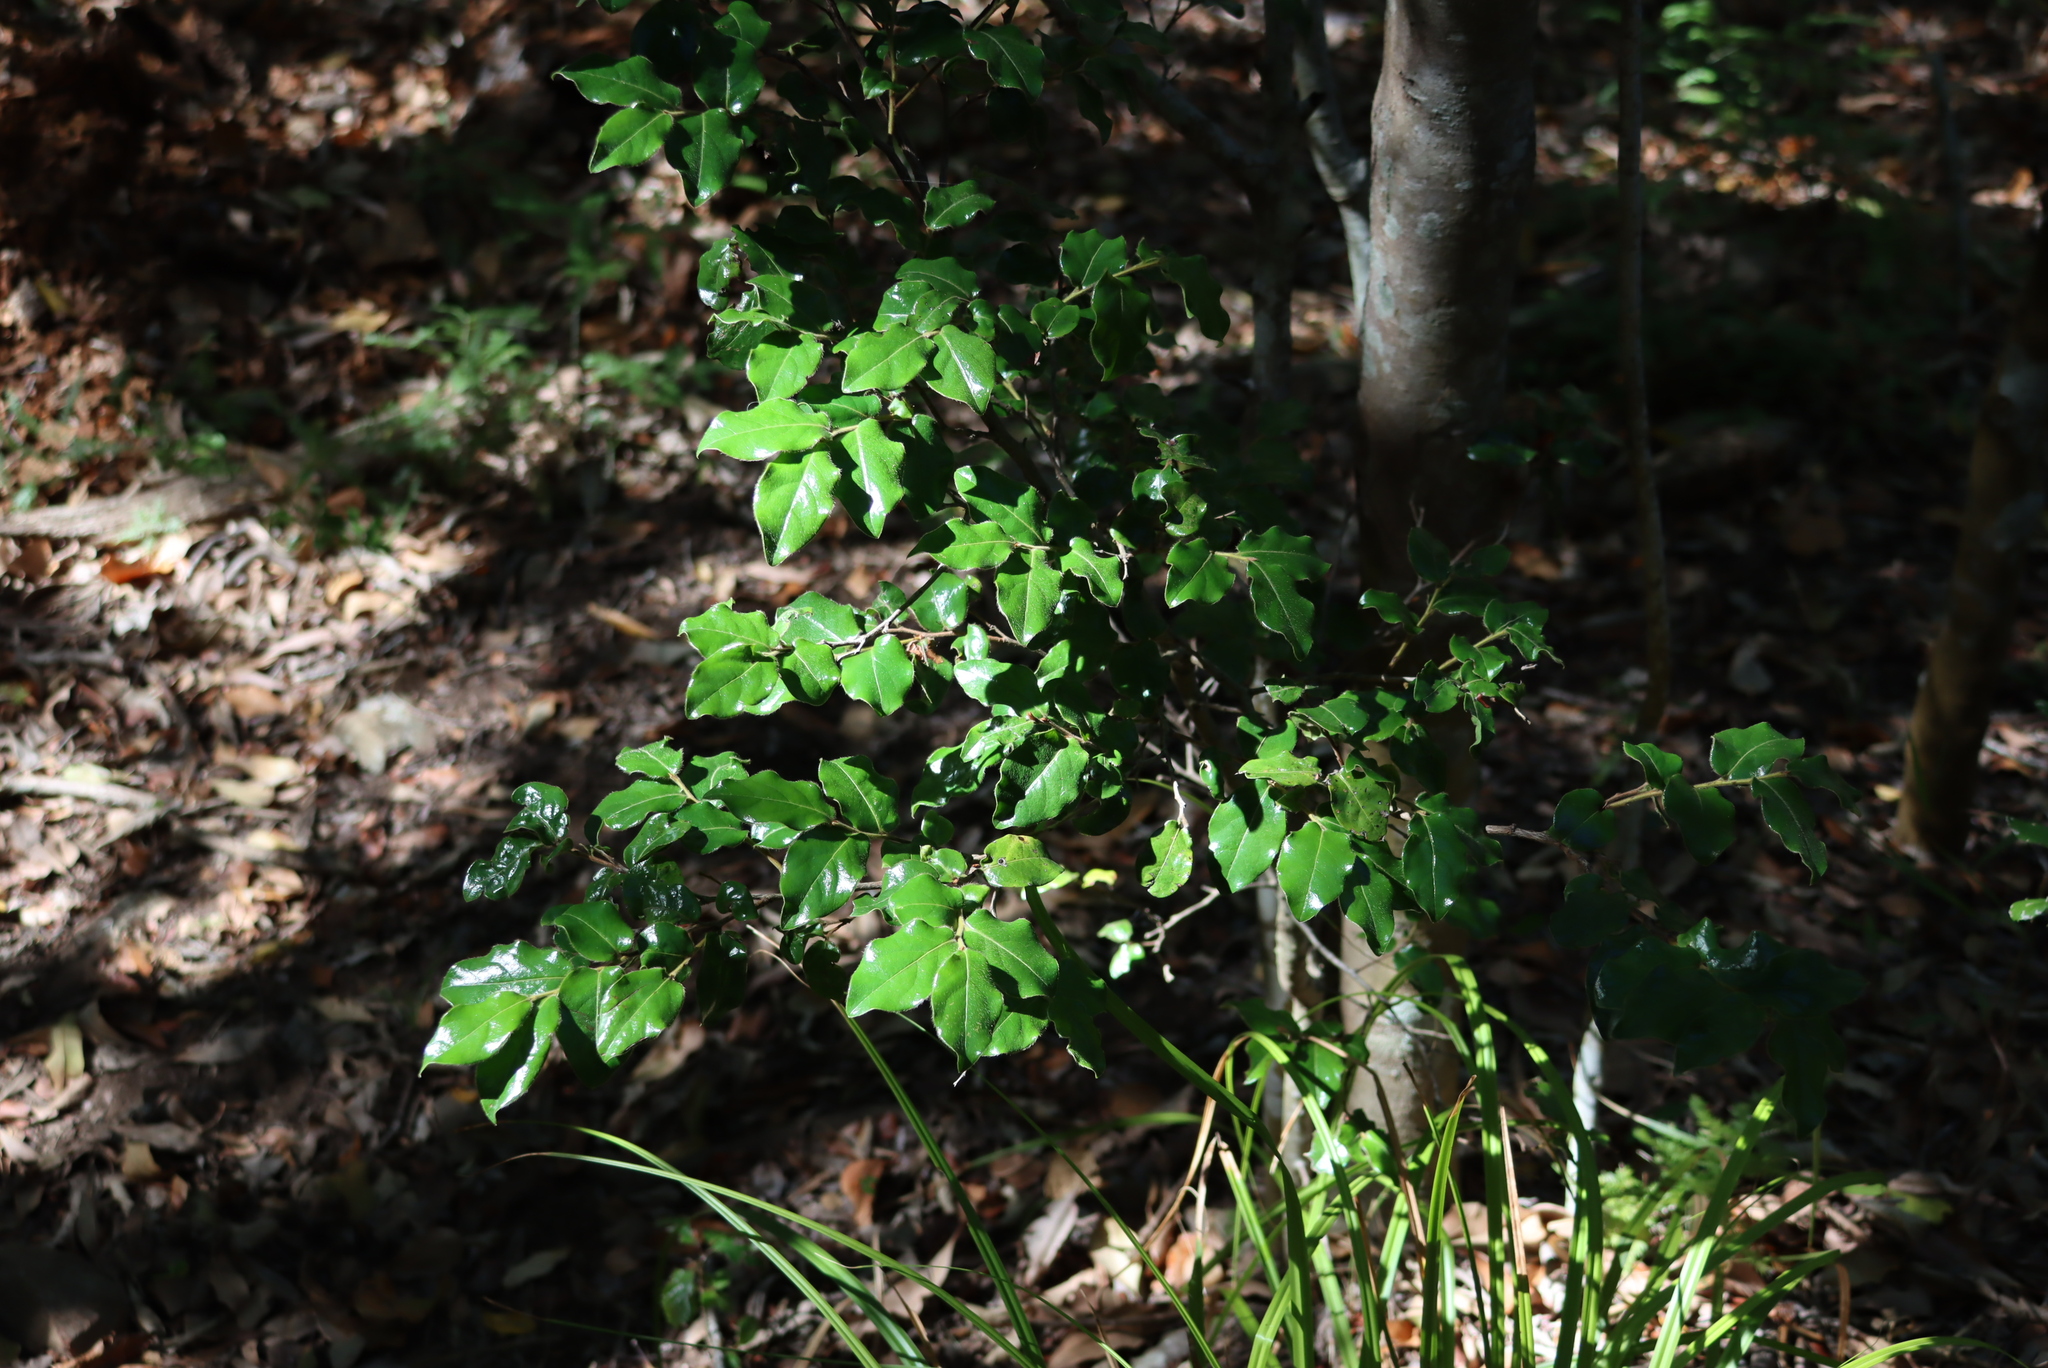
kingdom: Plantae
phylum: Tracheophyta
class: Magnoliopsida
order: Ericales
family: Ebenaceae
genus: Diospyros
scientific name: Diospyros whyteana
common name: Bladder-nut
